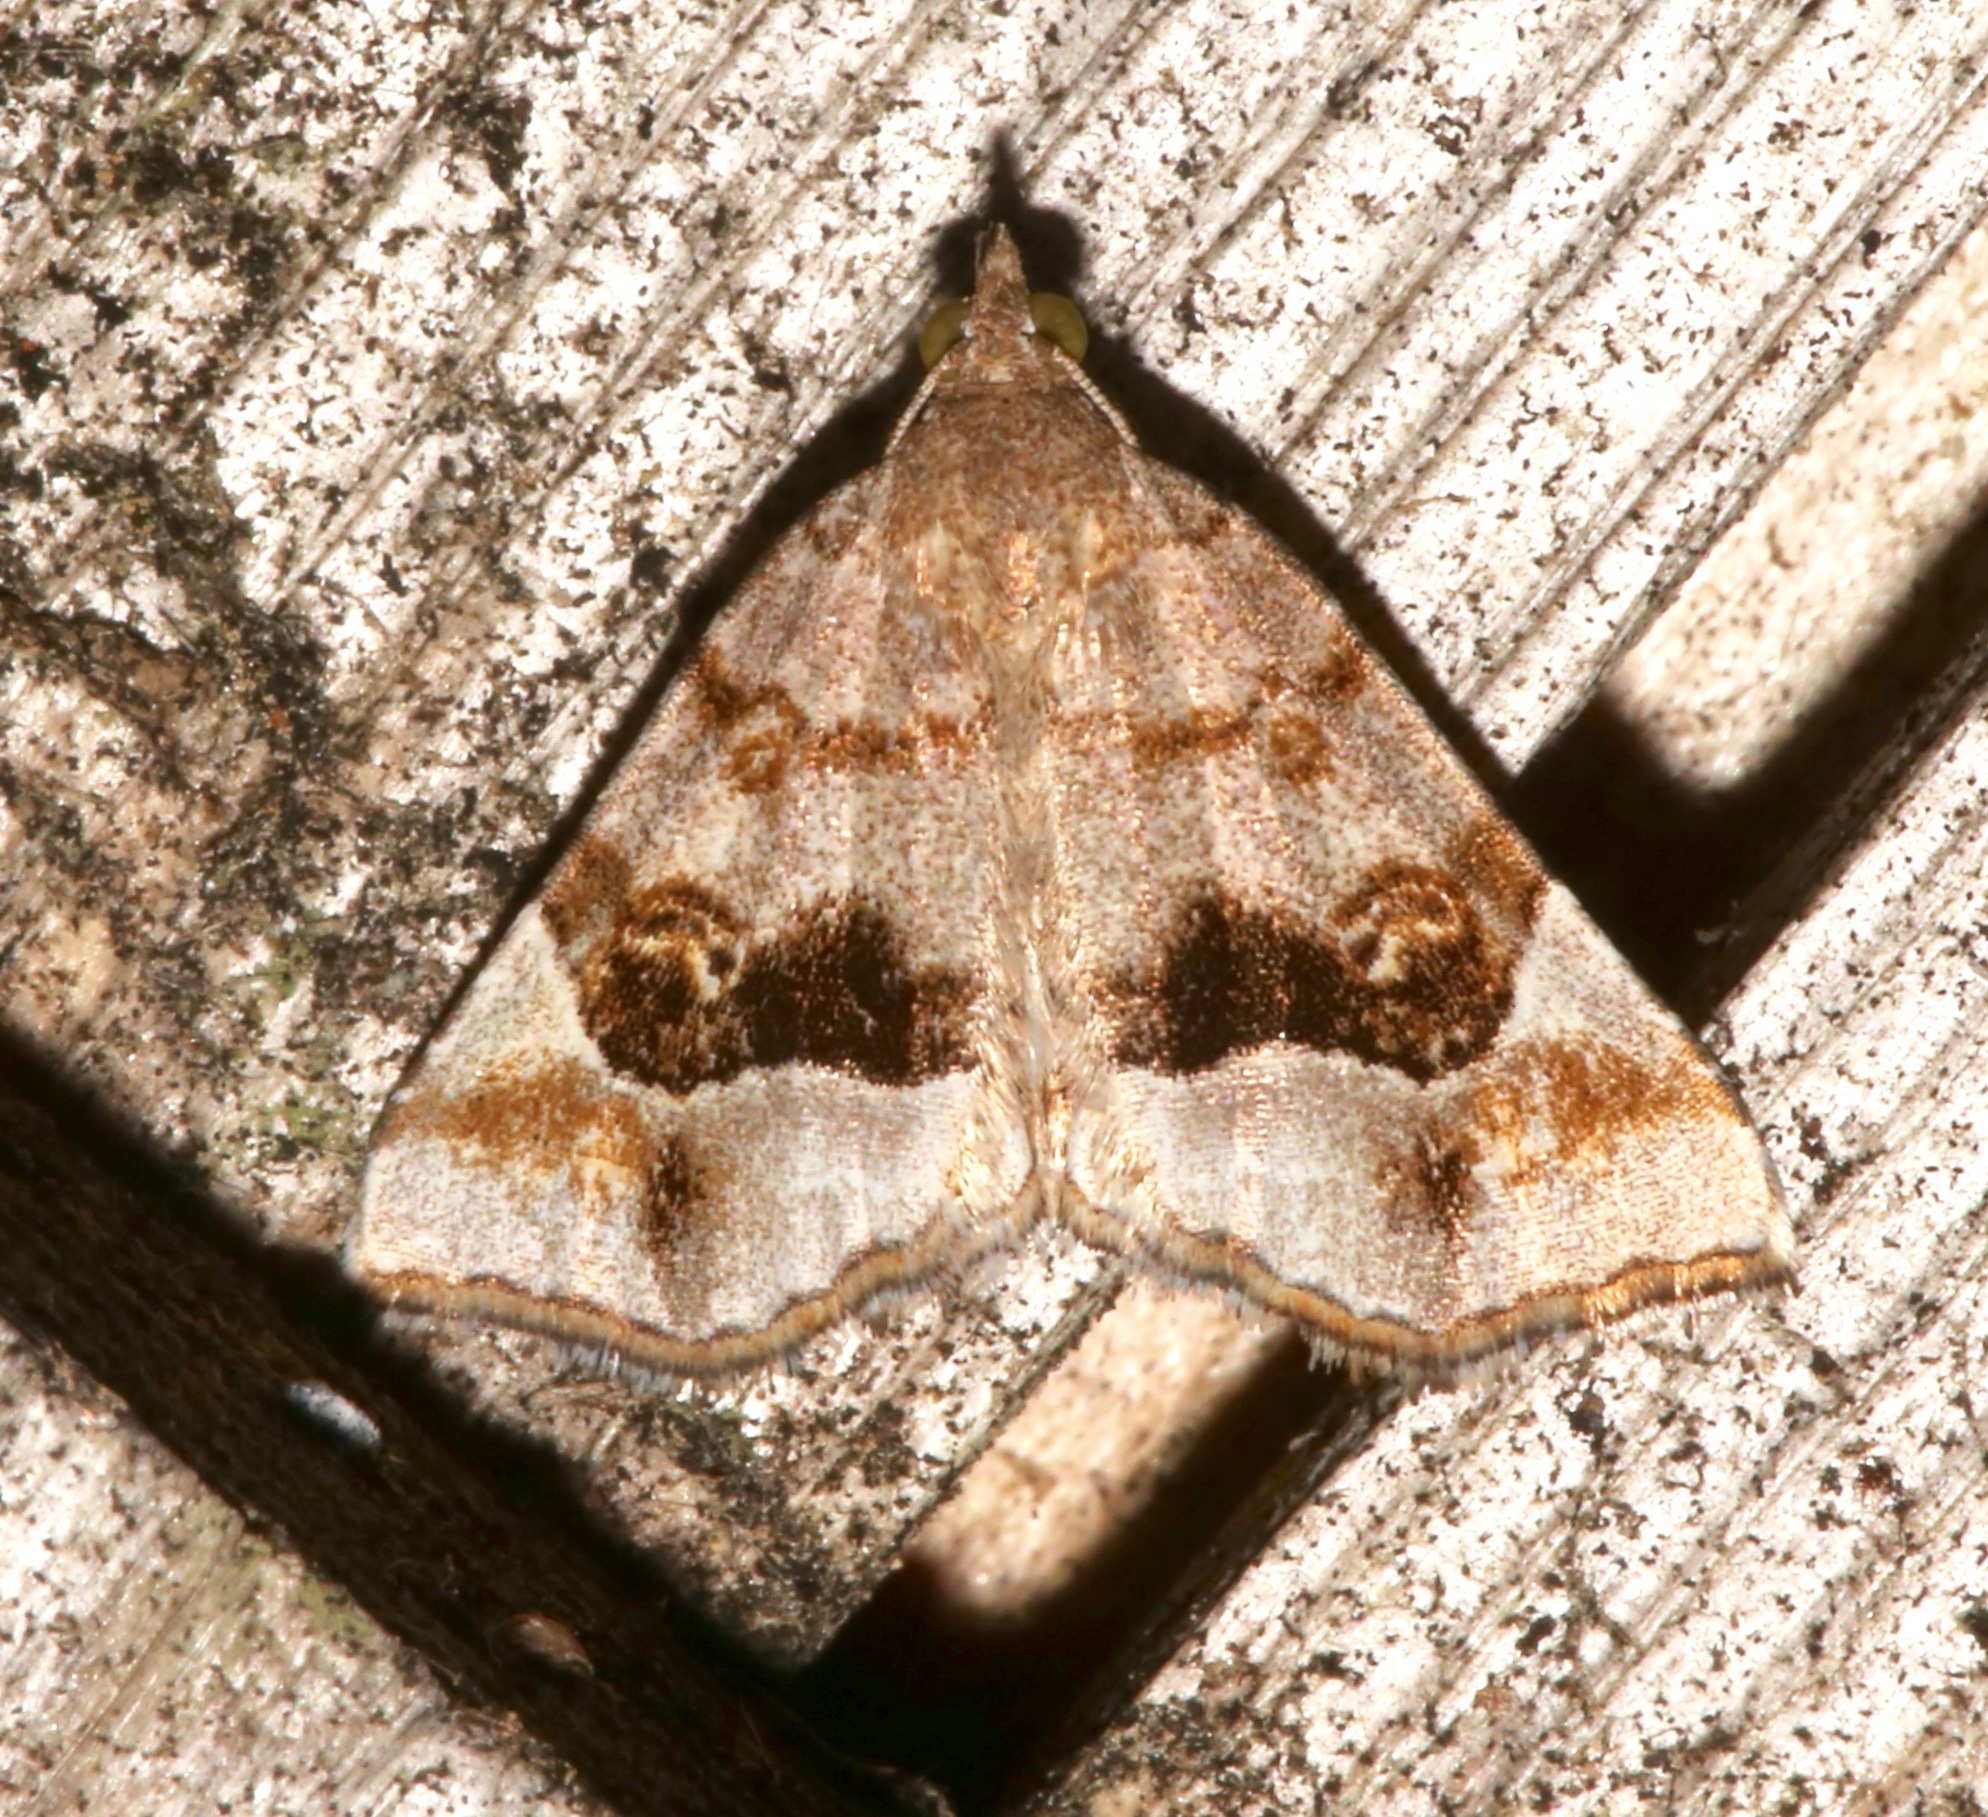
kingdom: Animalia
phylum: Arthropoda
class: Insecta
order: Lepidoptera
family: Erebidae
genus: Pangrapta
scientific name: Pangrapta decoralis
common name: Decorated owlet
